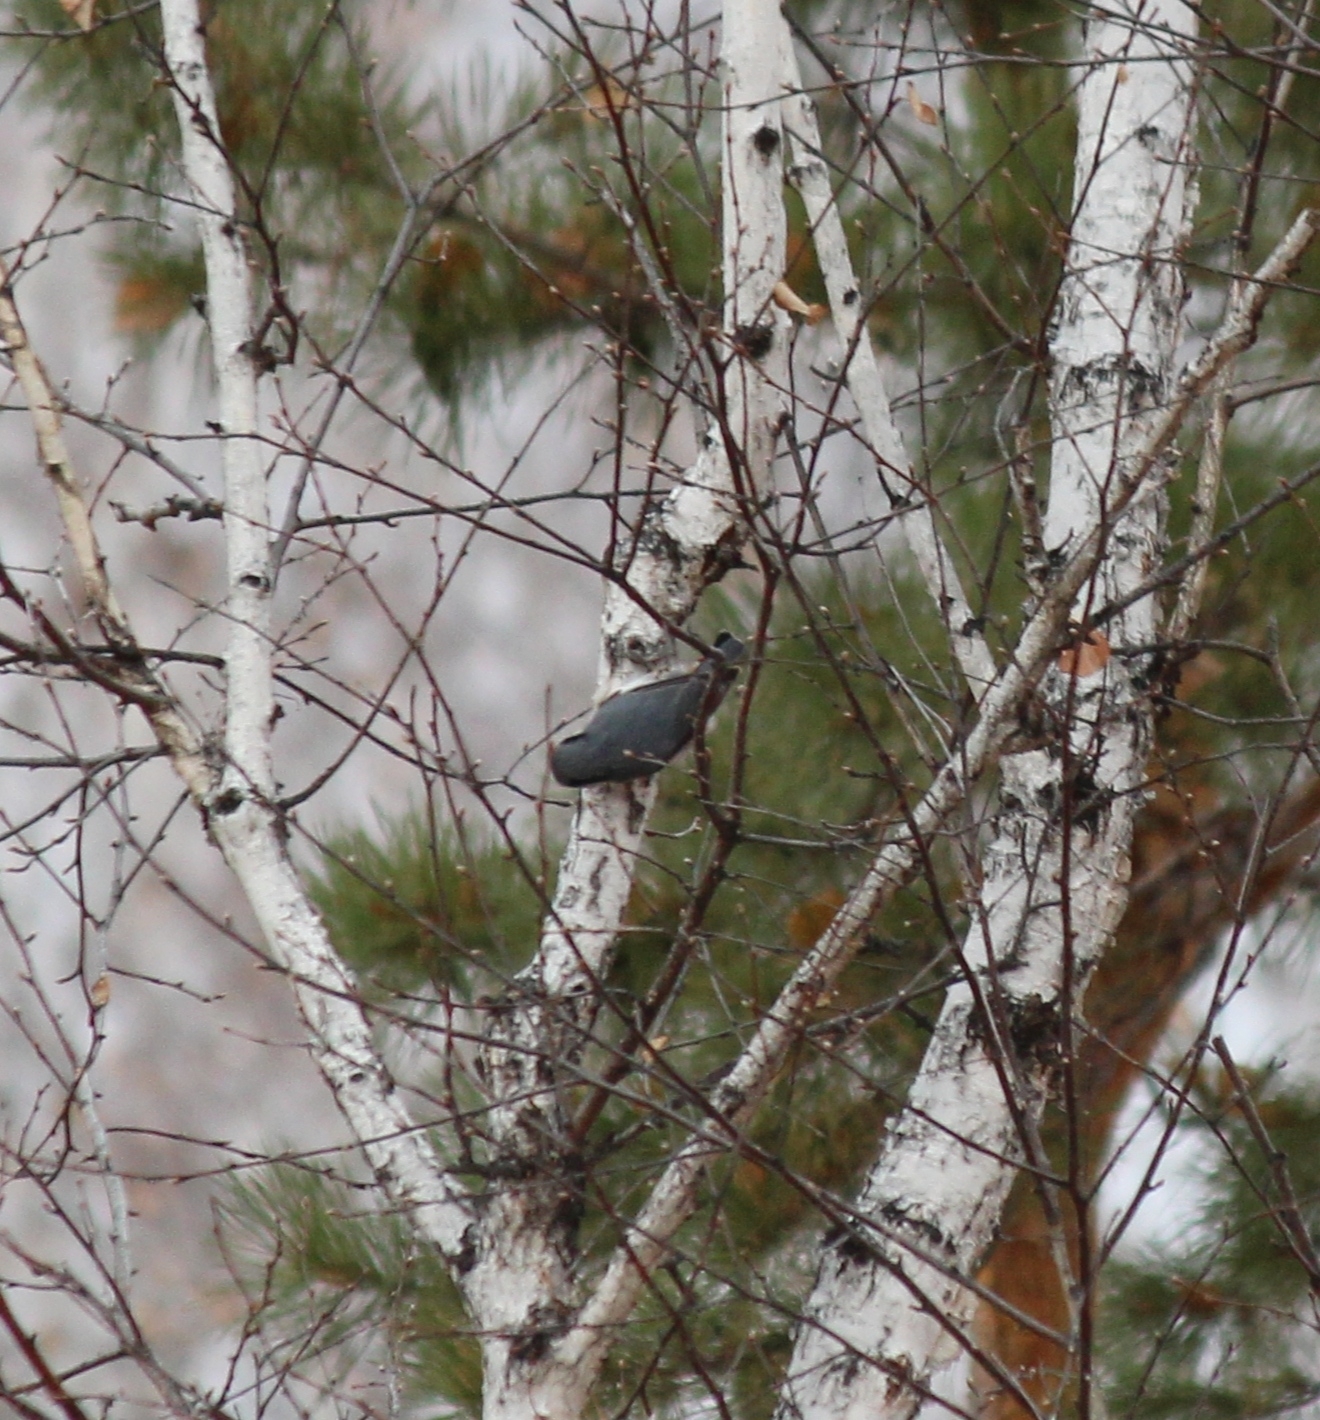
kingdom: Animalia
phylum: Chordata
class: Aves
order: Passeriformes
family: Sittidae
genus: Sitta
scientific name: Sitta europaea
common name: Eurasian nuthatch
